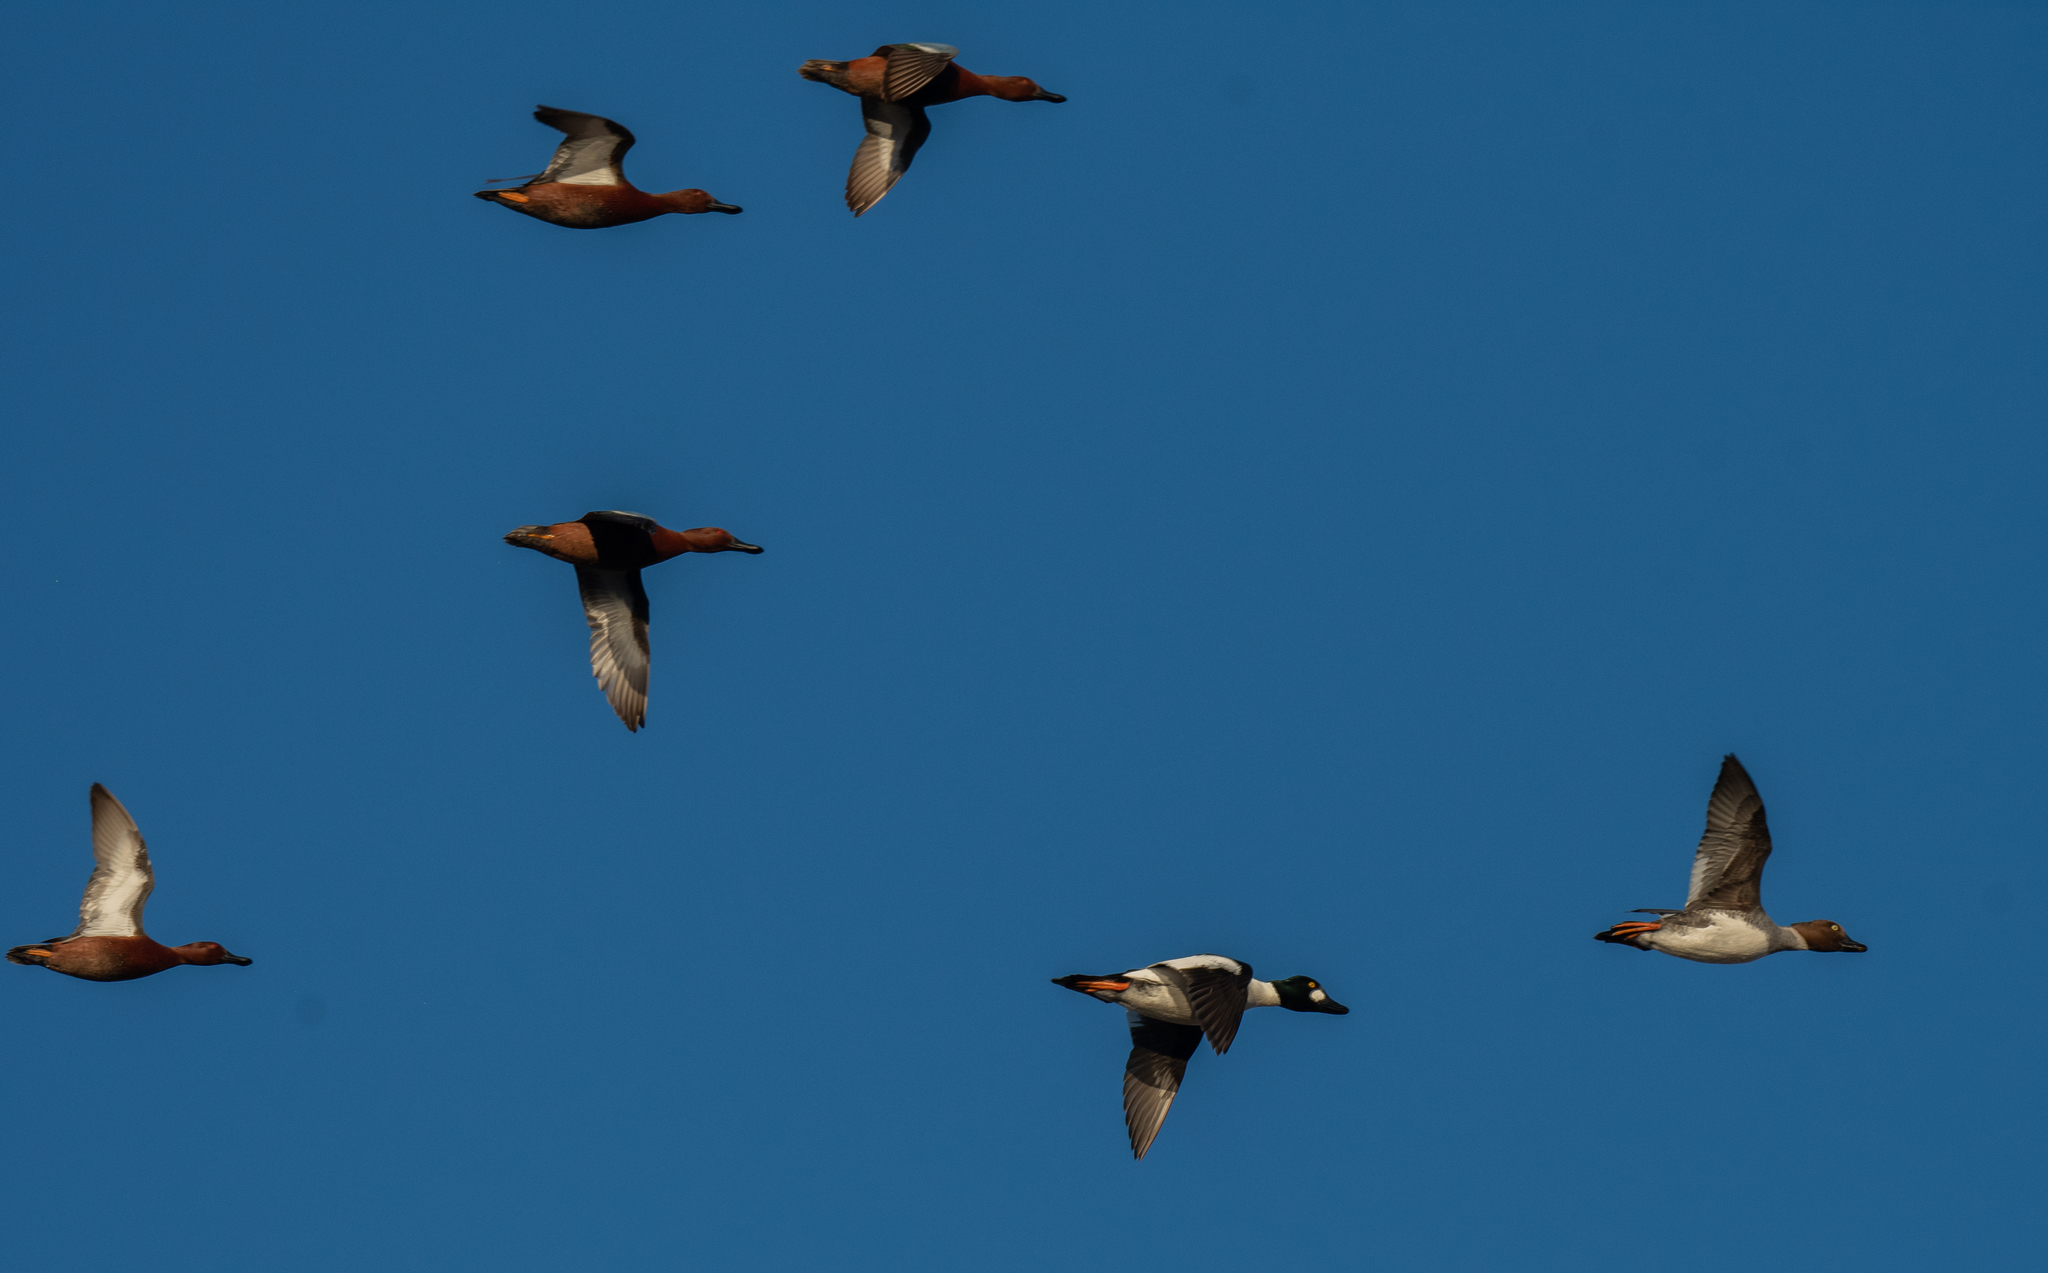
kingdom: Animalia
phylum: Chordata
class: Aves
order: Anseriformes
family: Anatidae
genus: Bucephala
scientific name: Bucephala clangula
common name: Common goldeneye
